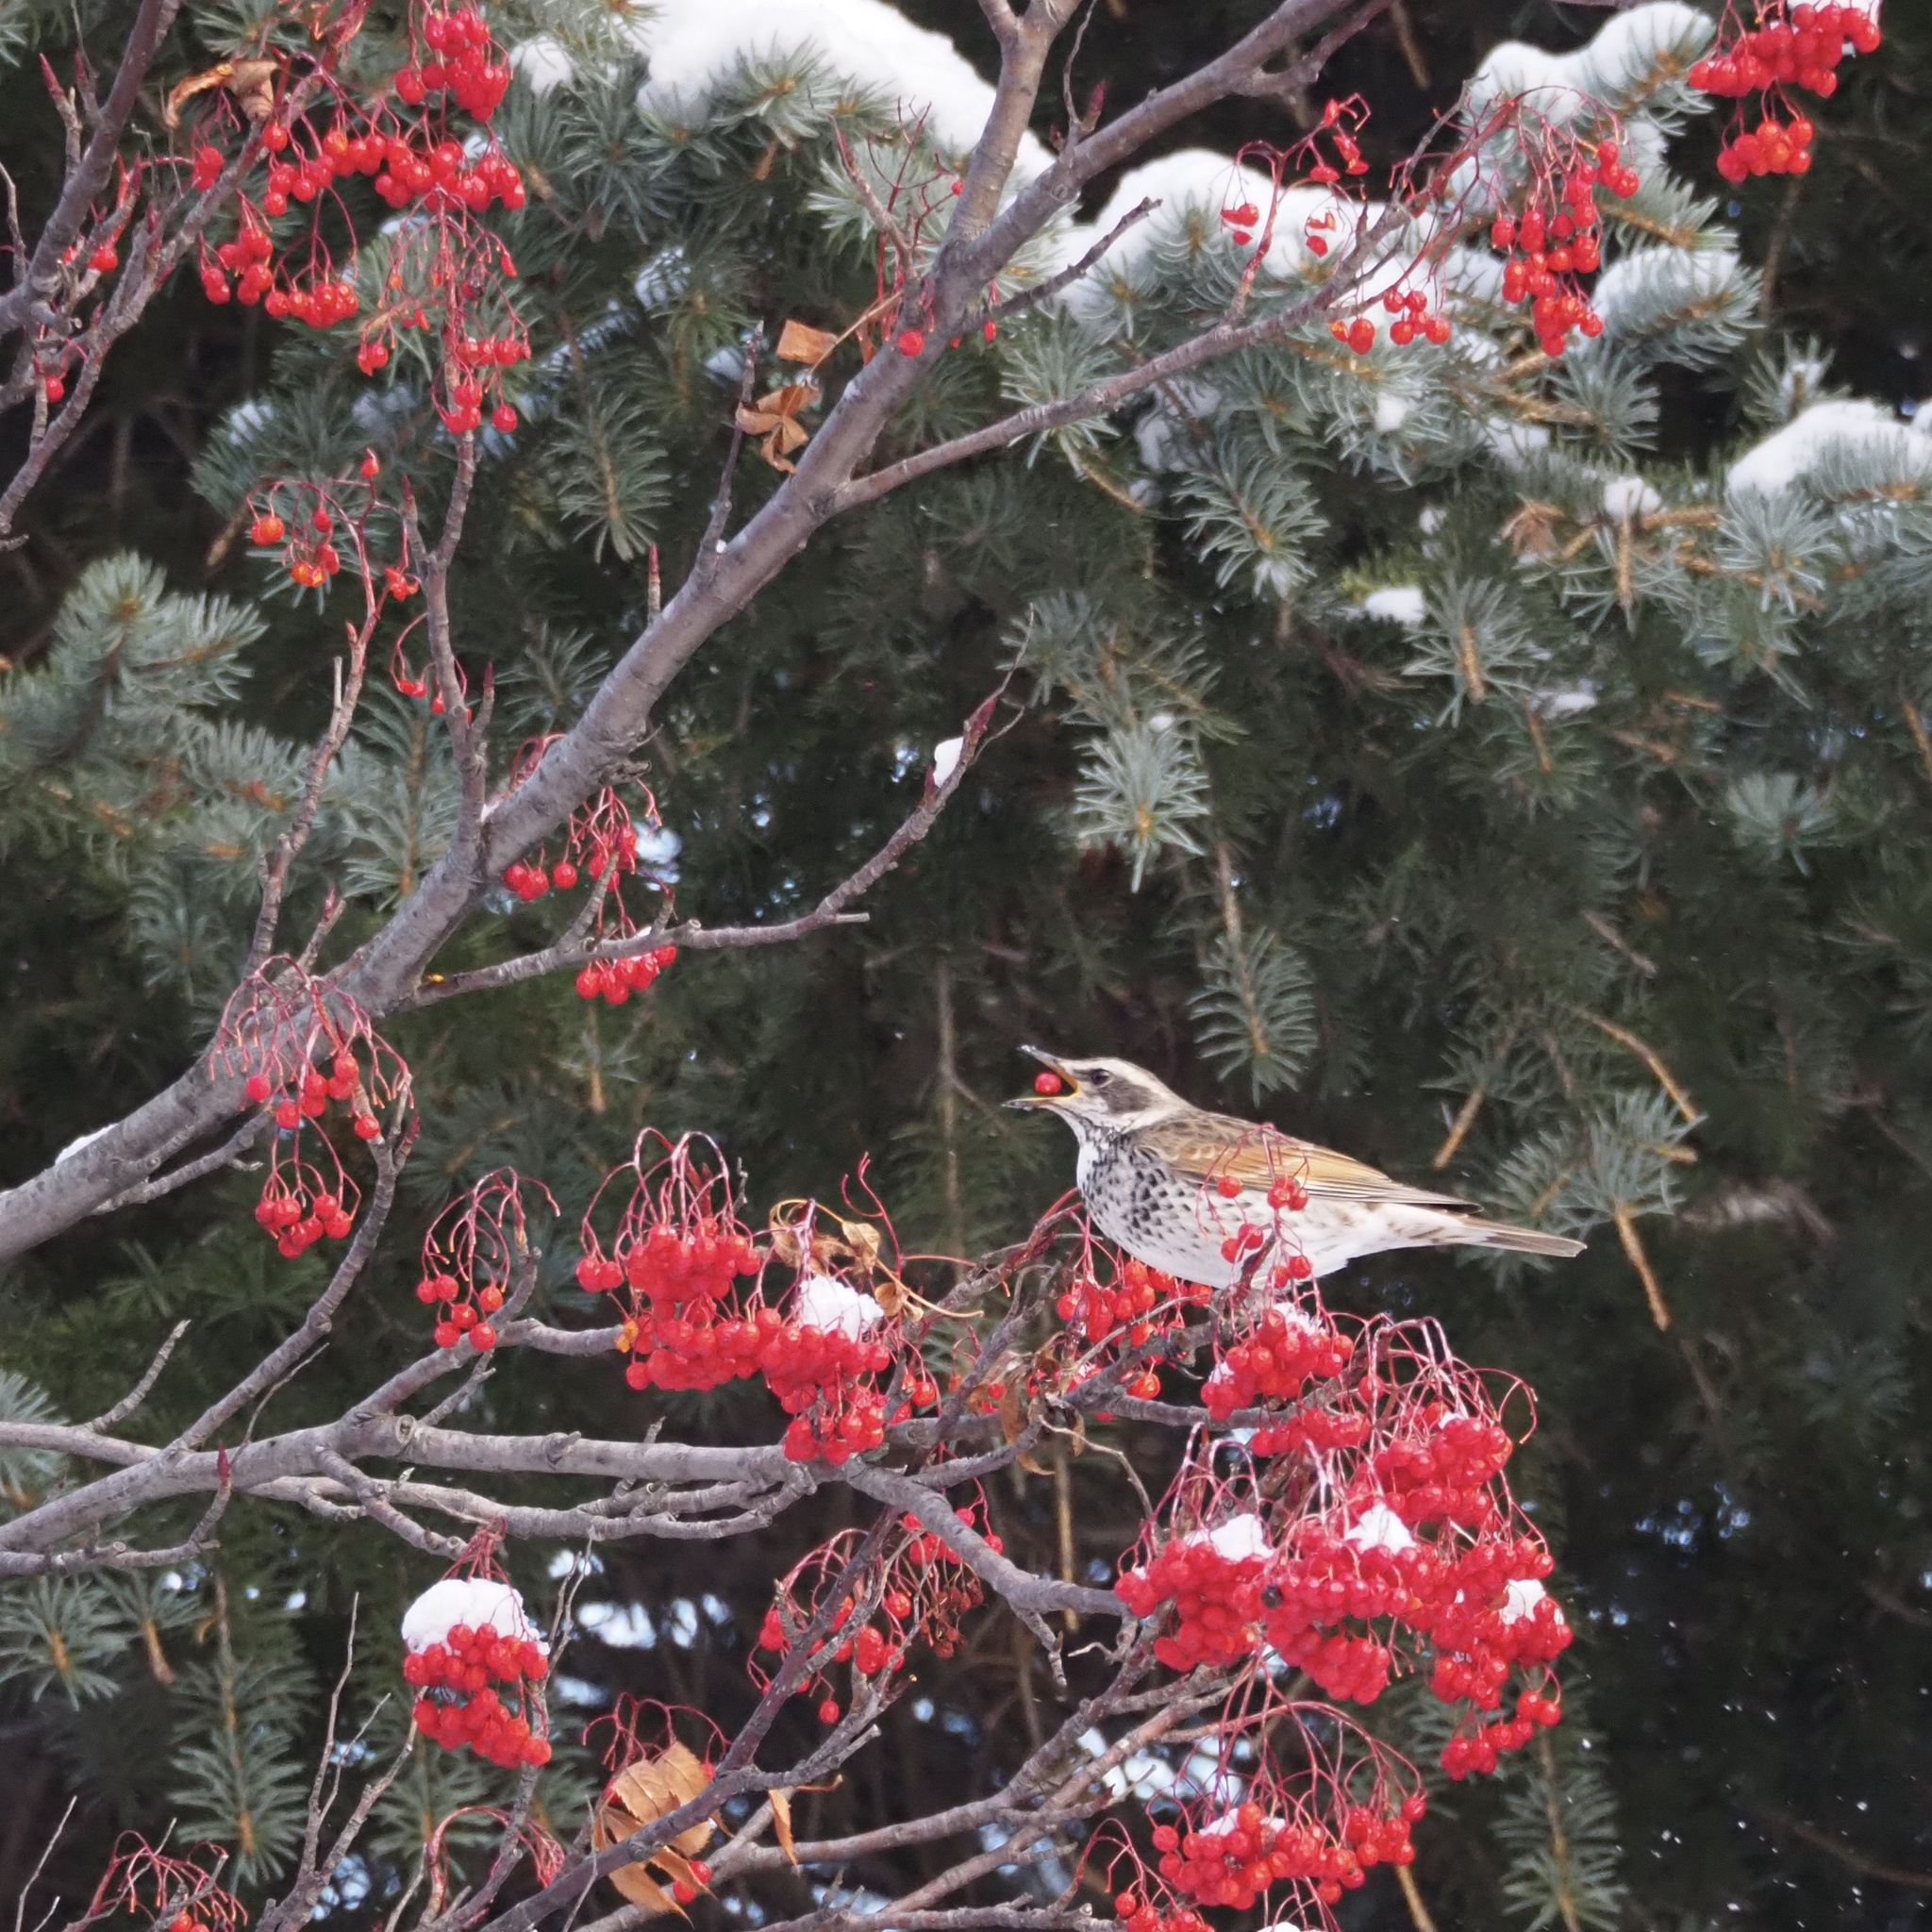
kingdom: Animalia
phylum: Chordata
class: Aves
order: Passeriformes
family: Turdidae
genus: Turdus
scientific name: Turdus eunomus
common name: Dusky thrush
